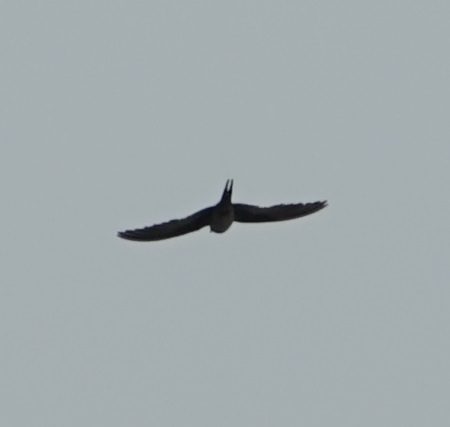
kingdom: Animalia
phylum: Chordata
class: Aves
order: Passeriformes
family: Hirundinidae
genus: Hirundo
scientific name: Hirundo neoxena
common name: Welcome swallow
